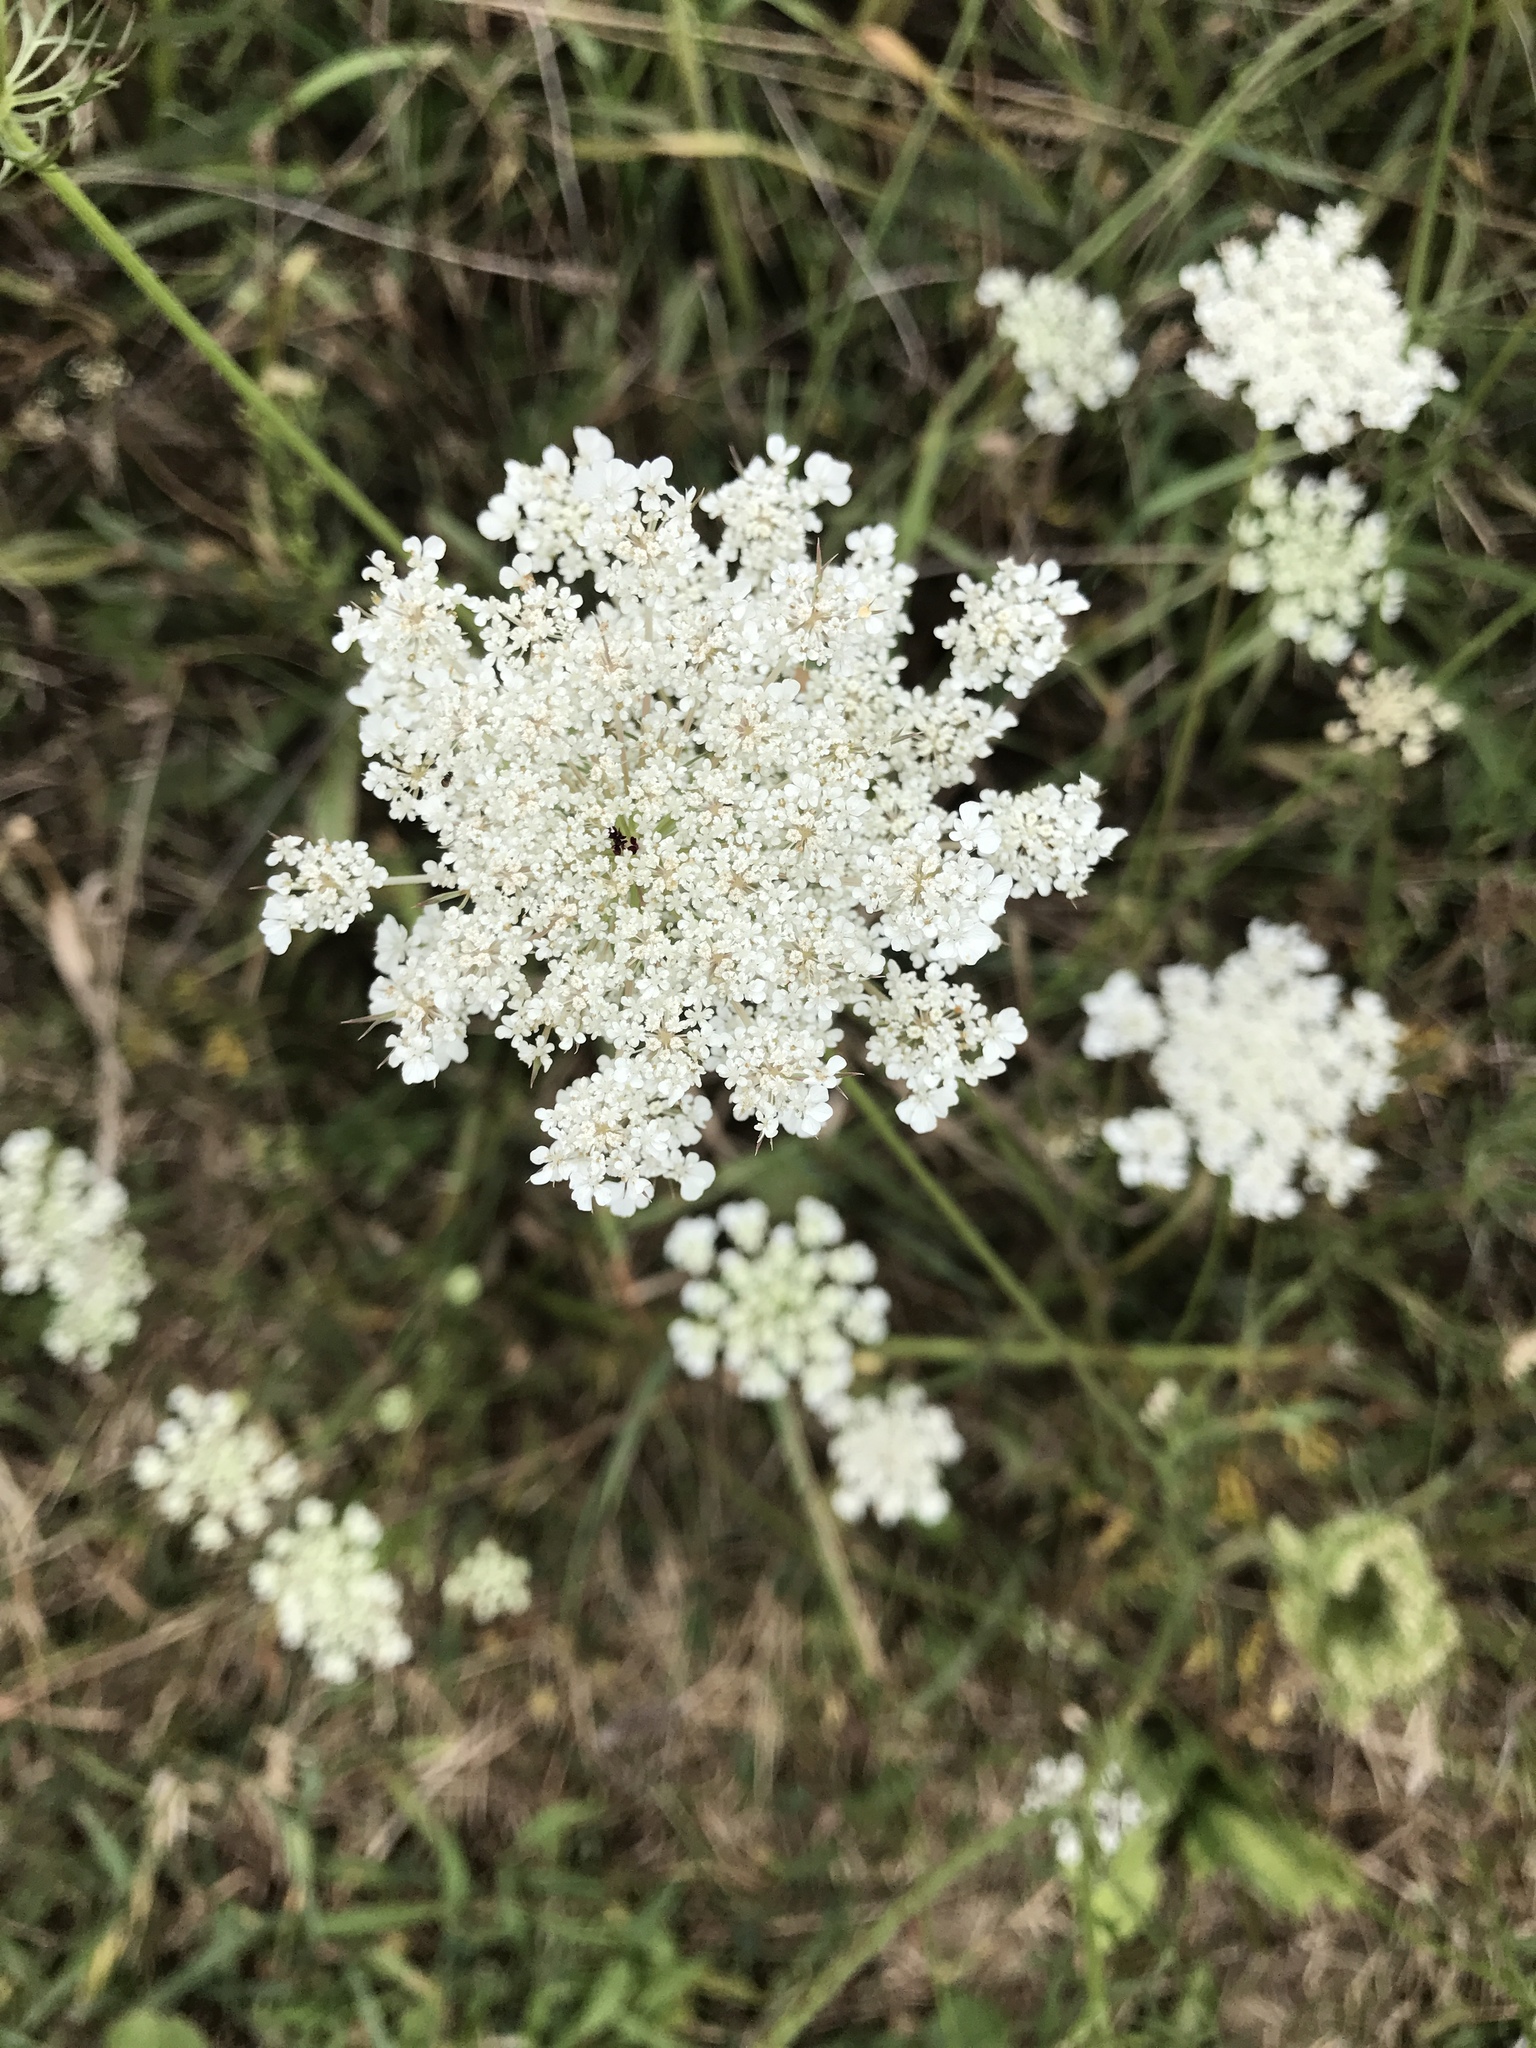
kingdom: Plantae
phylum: Tracheophyta
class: Magnoliopsida
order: Apiales
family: Apiaceae
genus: Daucus
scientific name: Daucus carota
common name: Wild carrot
